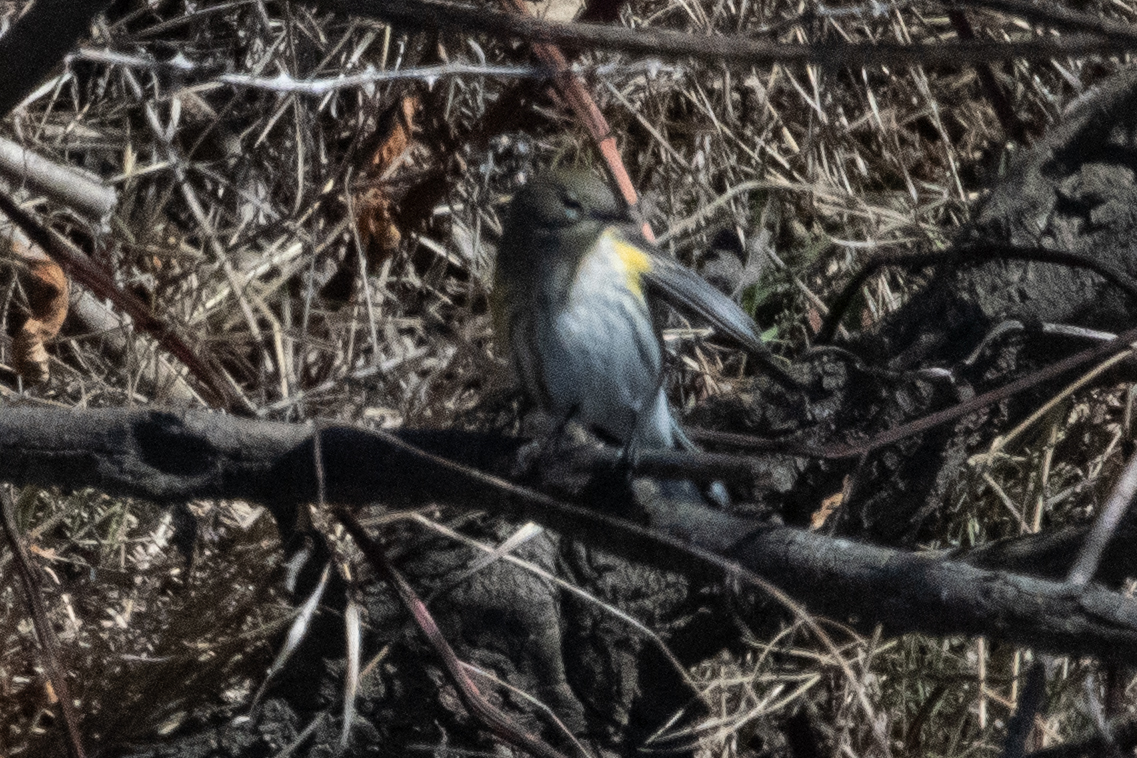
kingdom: Animalia
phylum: Chordata
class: Aves
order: Passeriformes
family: Parulidae
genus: Setophaga
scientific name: Setophaga coronata
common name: Myrtle warbler
